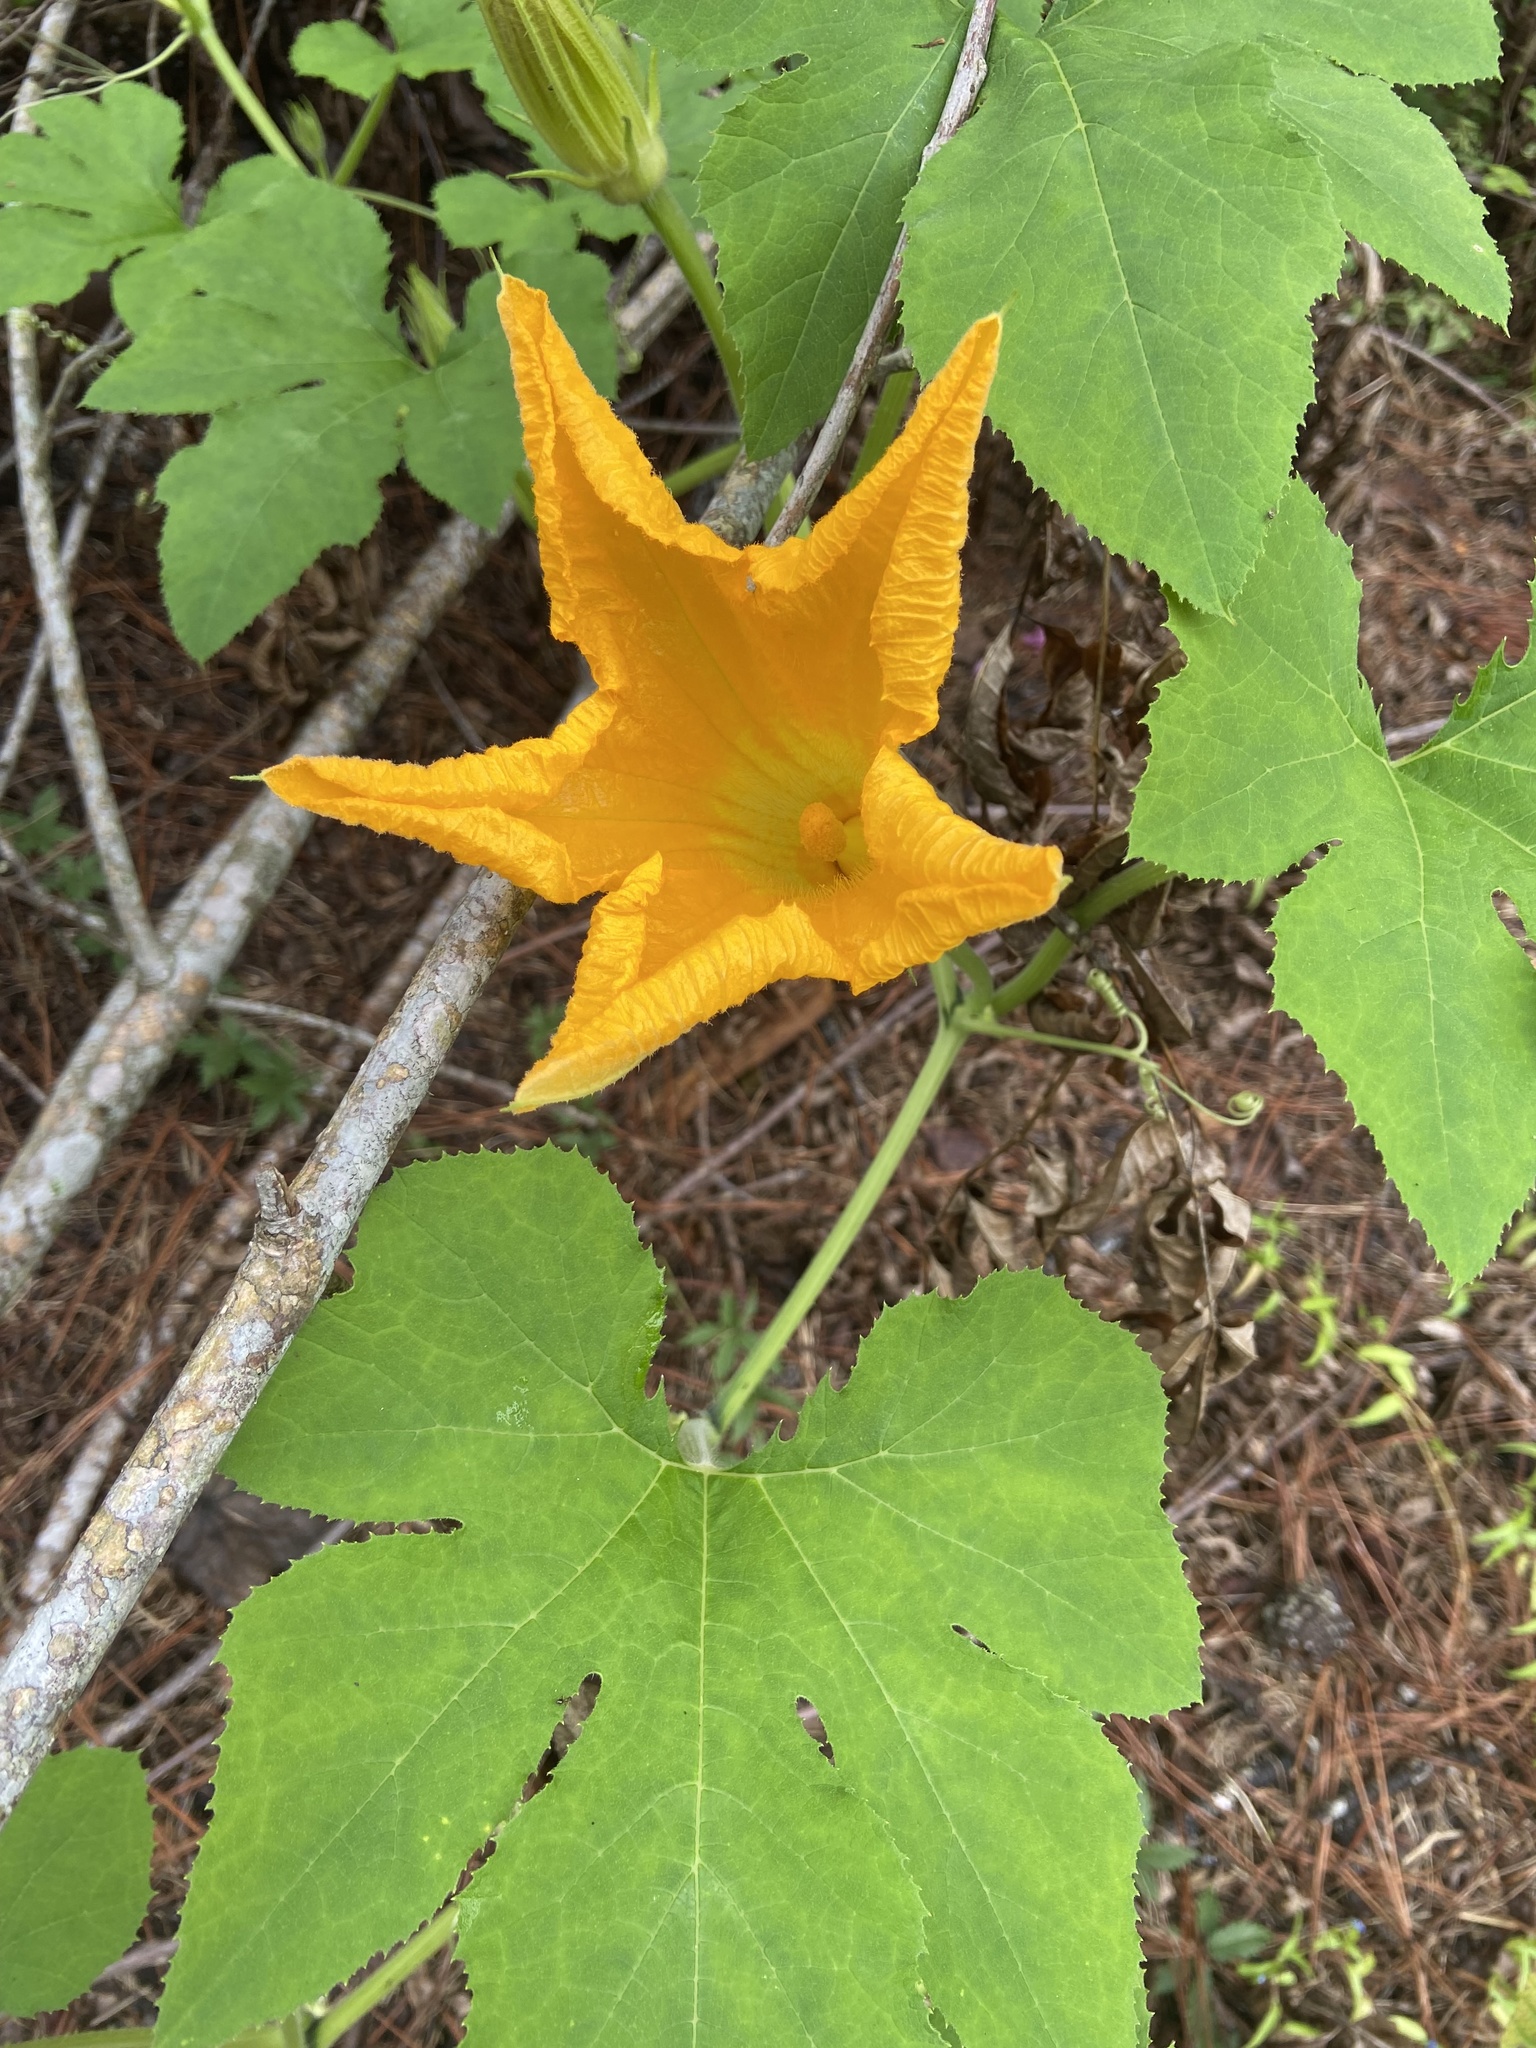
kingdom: Plantae
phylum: Tracheophyta
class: Magnoliopsida
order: Cucurbitales
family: Cucurbitaceae
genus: Cucurbita
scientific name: Cucurbita pepo
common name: Marrow
